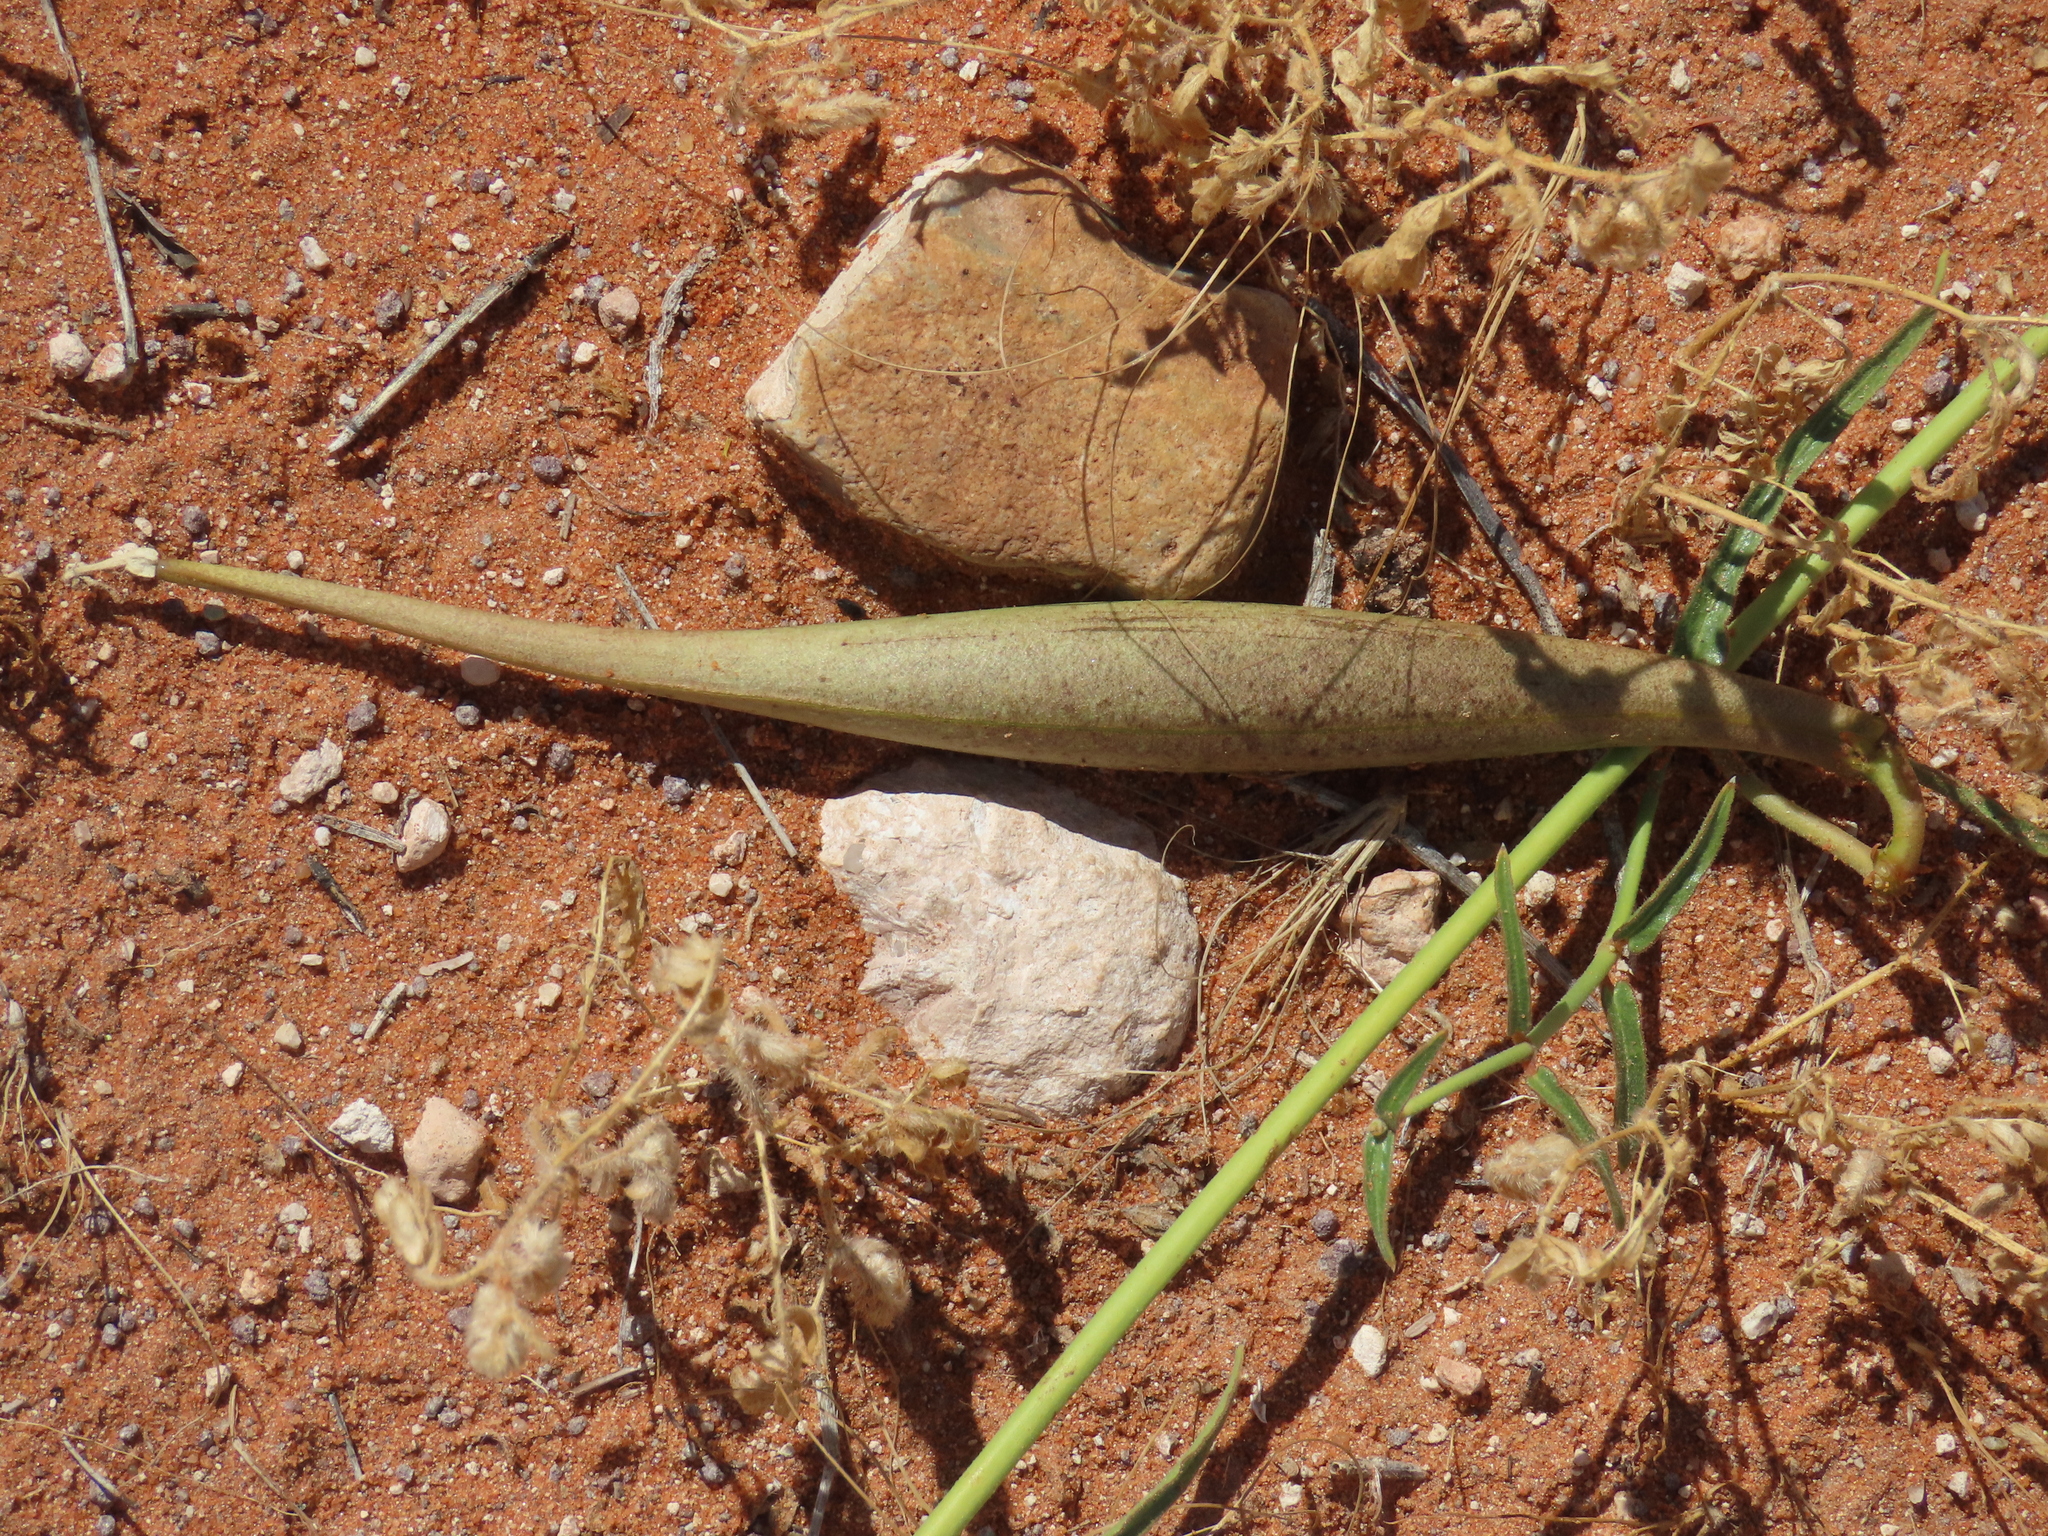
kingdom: Plantae
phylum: Tracheophyta
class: Magnoliopsida
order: Gentianales
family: Apocynaceae
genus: Orthanthera
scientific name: Orthanthera jasminiflora
